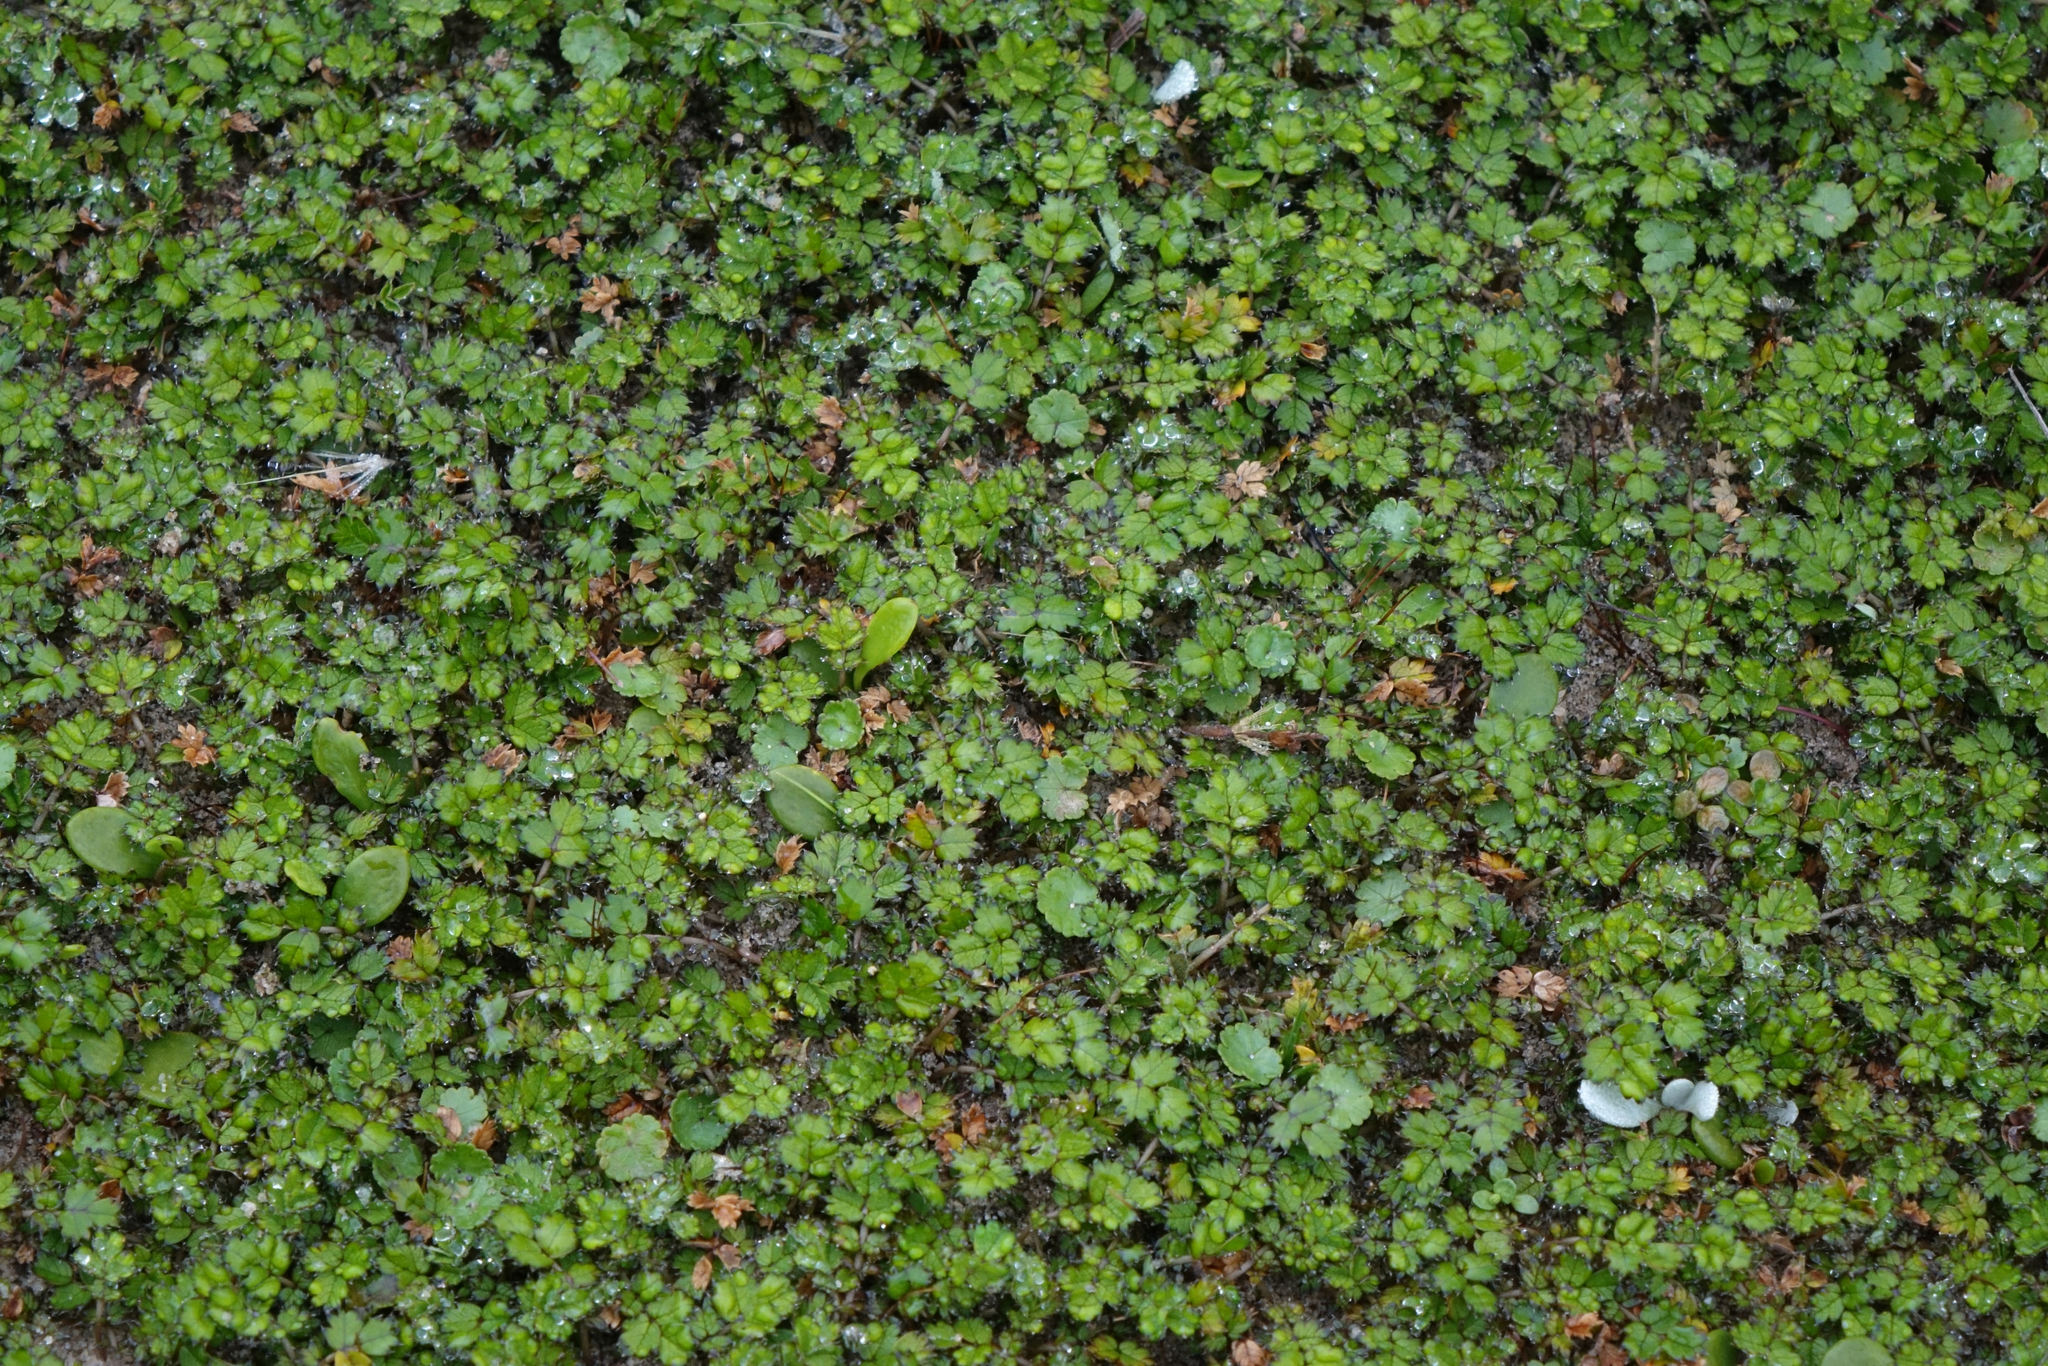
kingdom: Plantae
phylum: Tracheophyta
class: Magnoliopsida
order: Rosales
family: Rosaceae
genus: Acaena
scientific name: Acaena microphylla
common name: New zealand-bur
